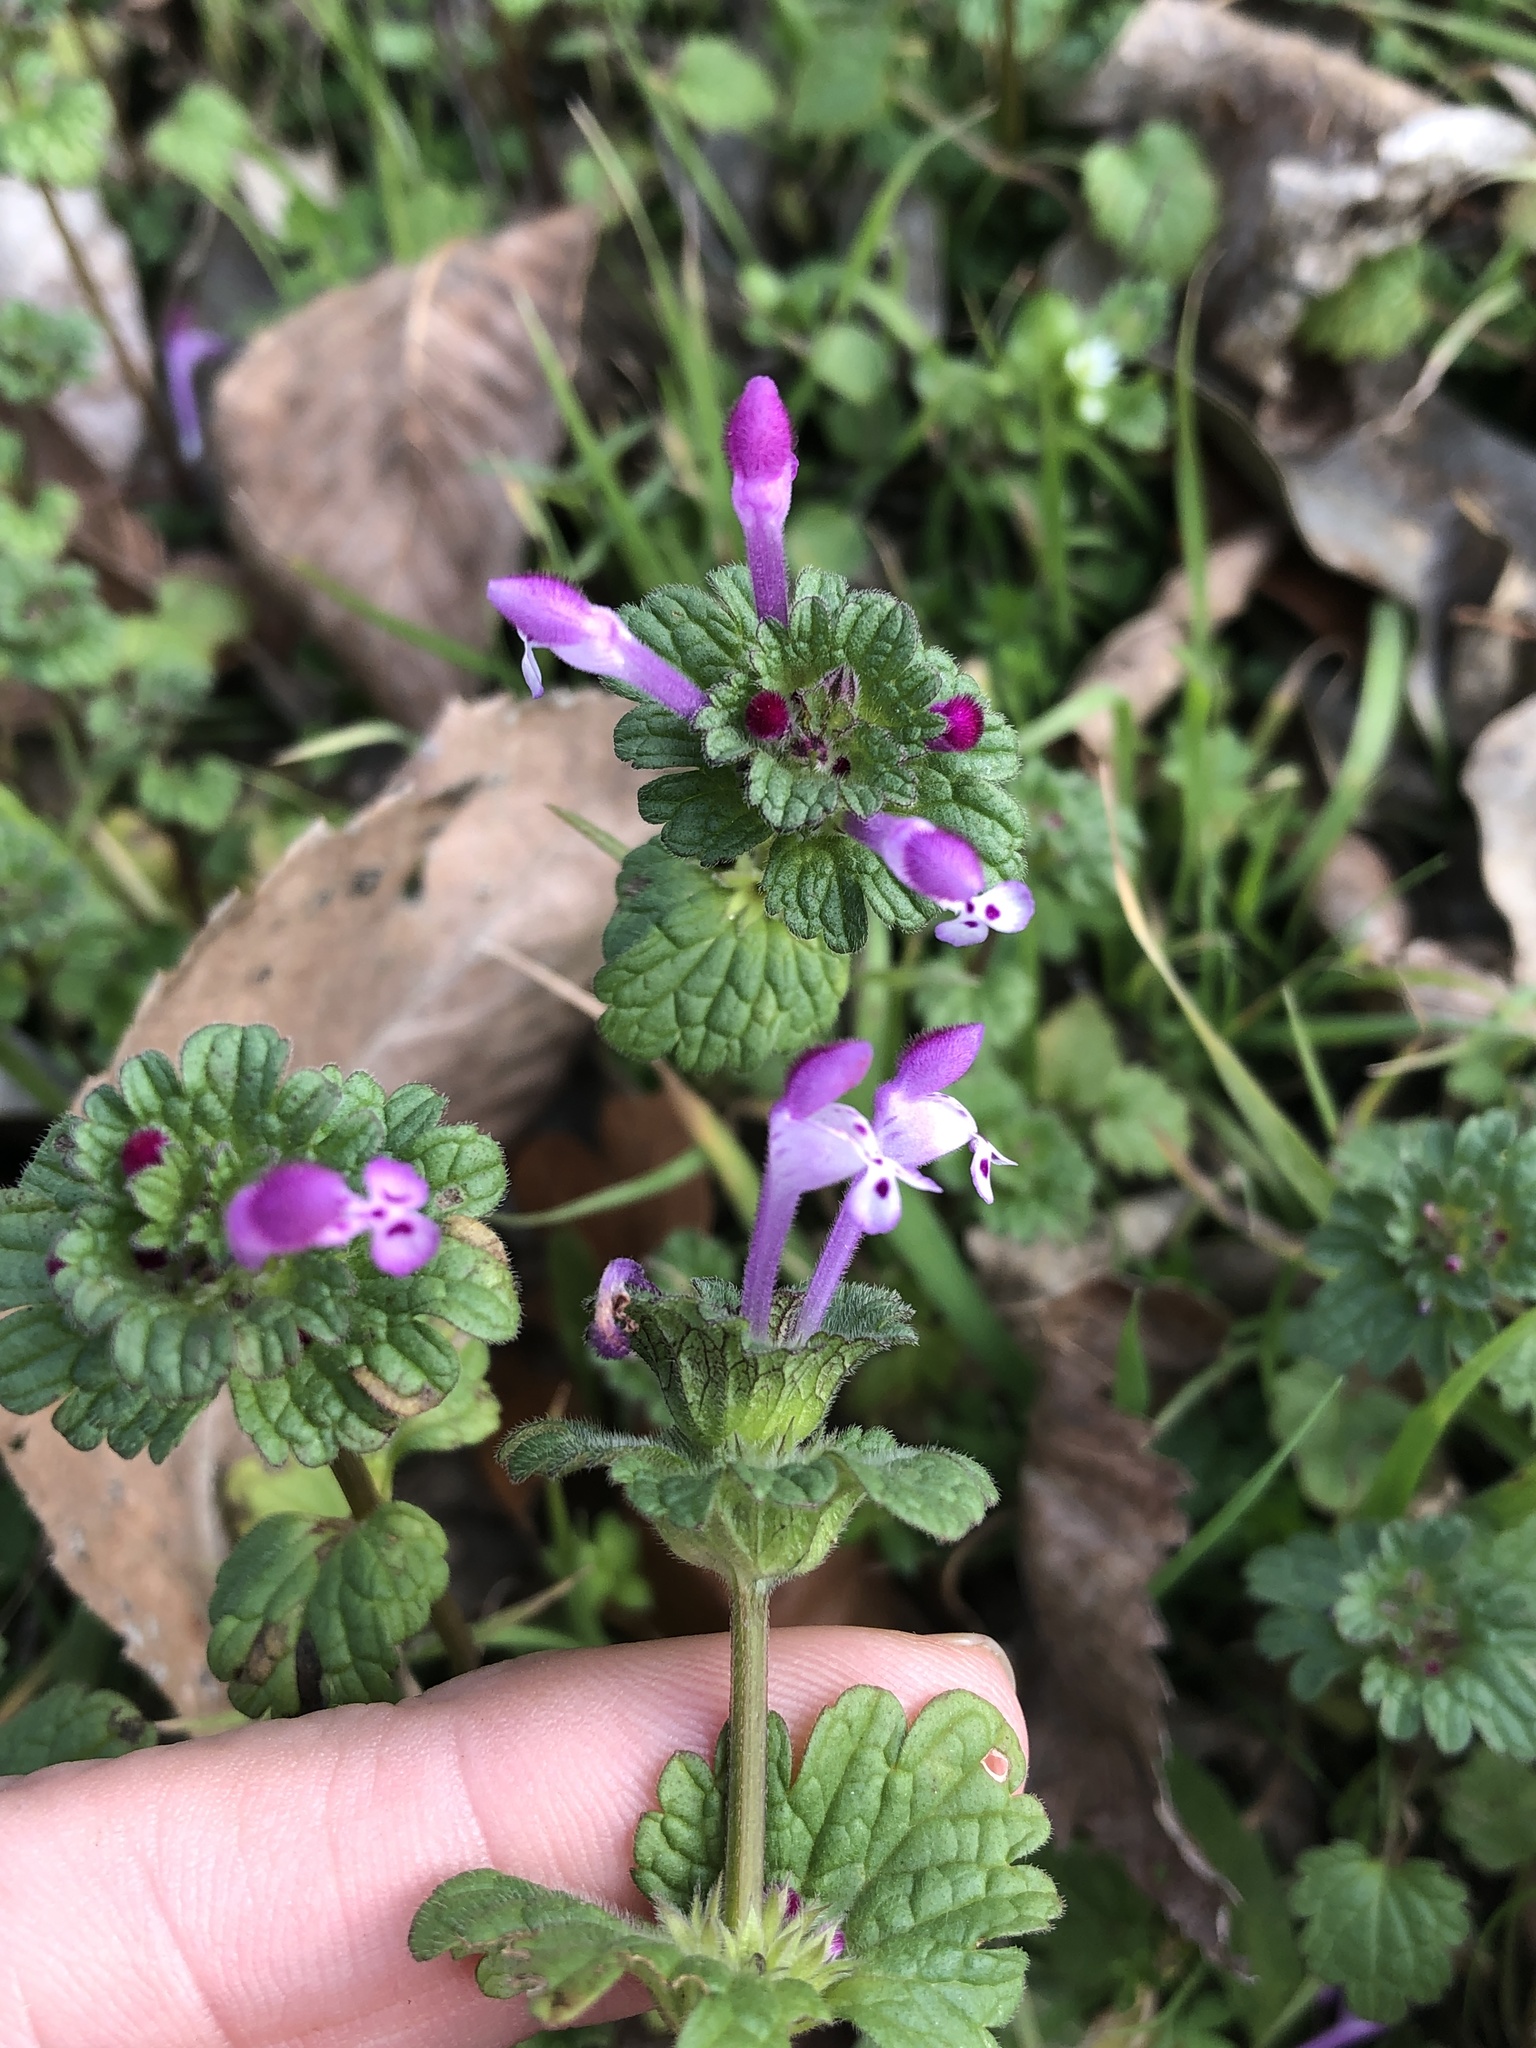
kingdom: Plantae
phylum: Tracheophyta
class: Magnoliopsida
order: Lamiales
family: Lamiaceae
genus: Lamium
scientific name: Lamium amplexicaule
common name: Henbit dead-nettle
